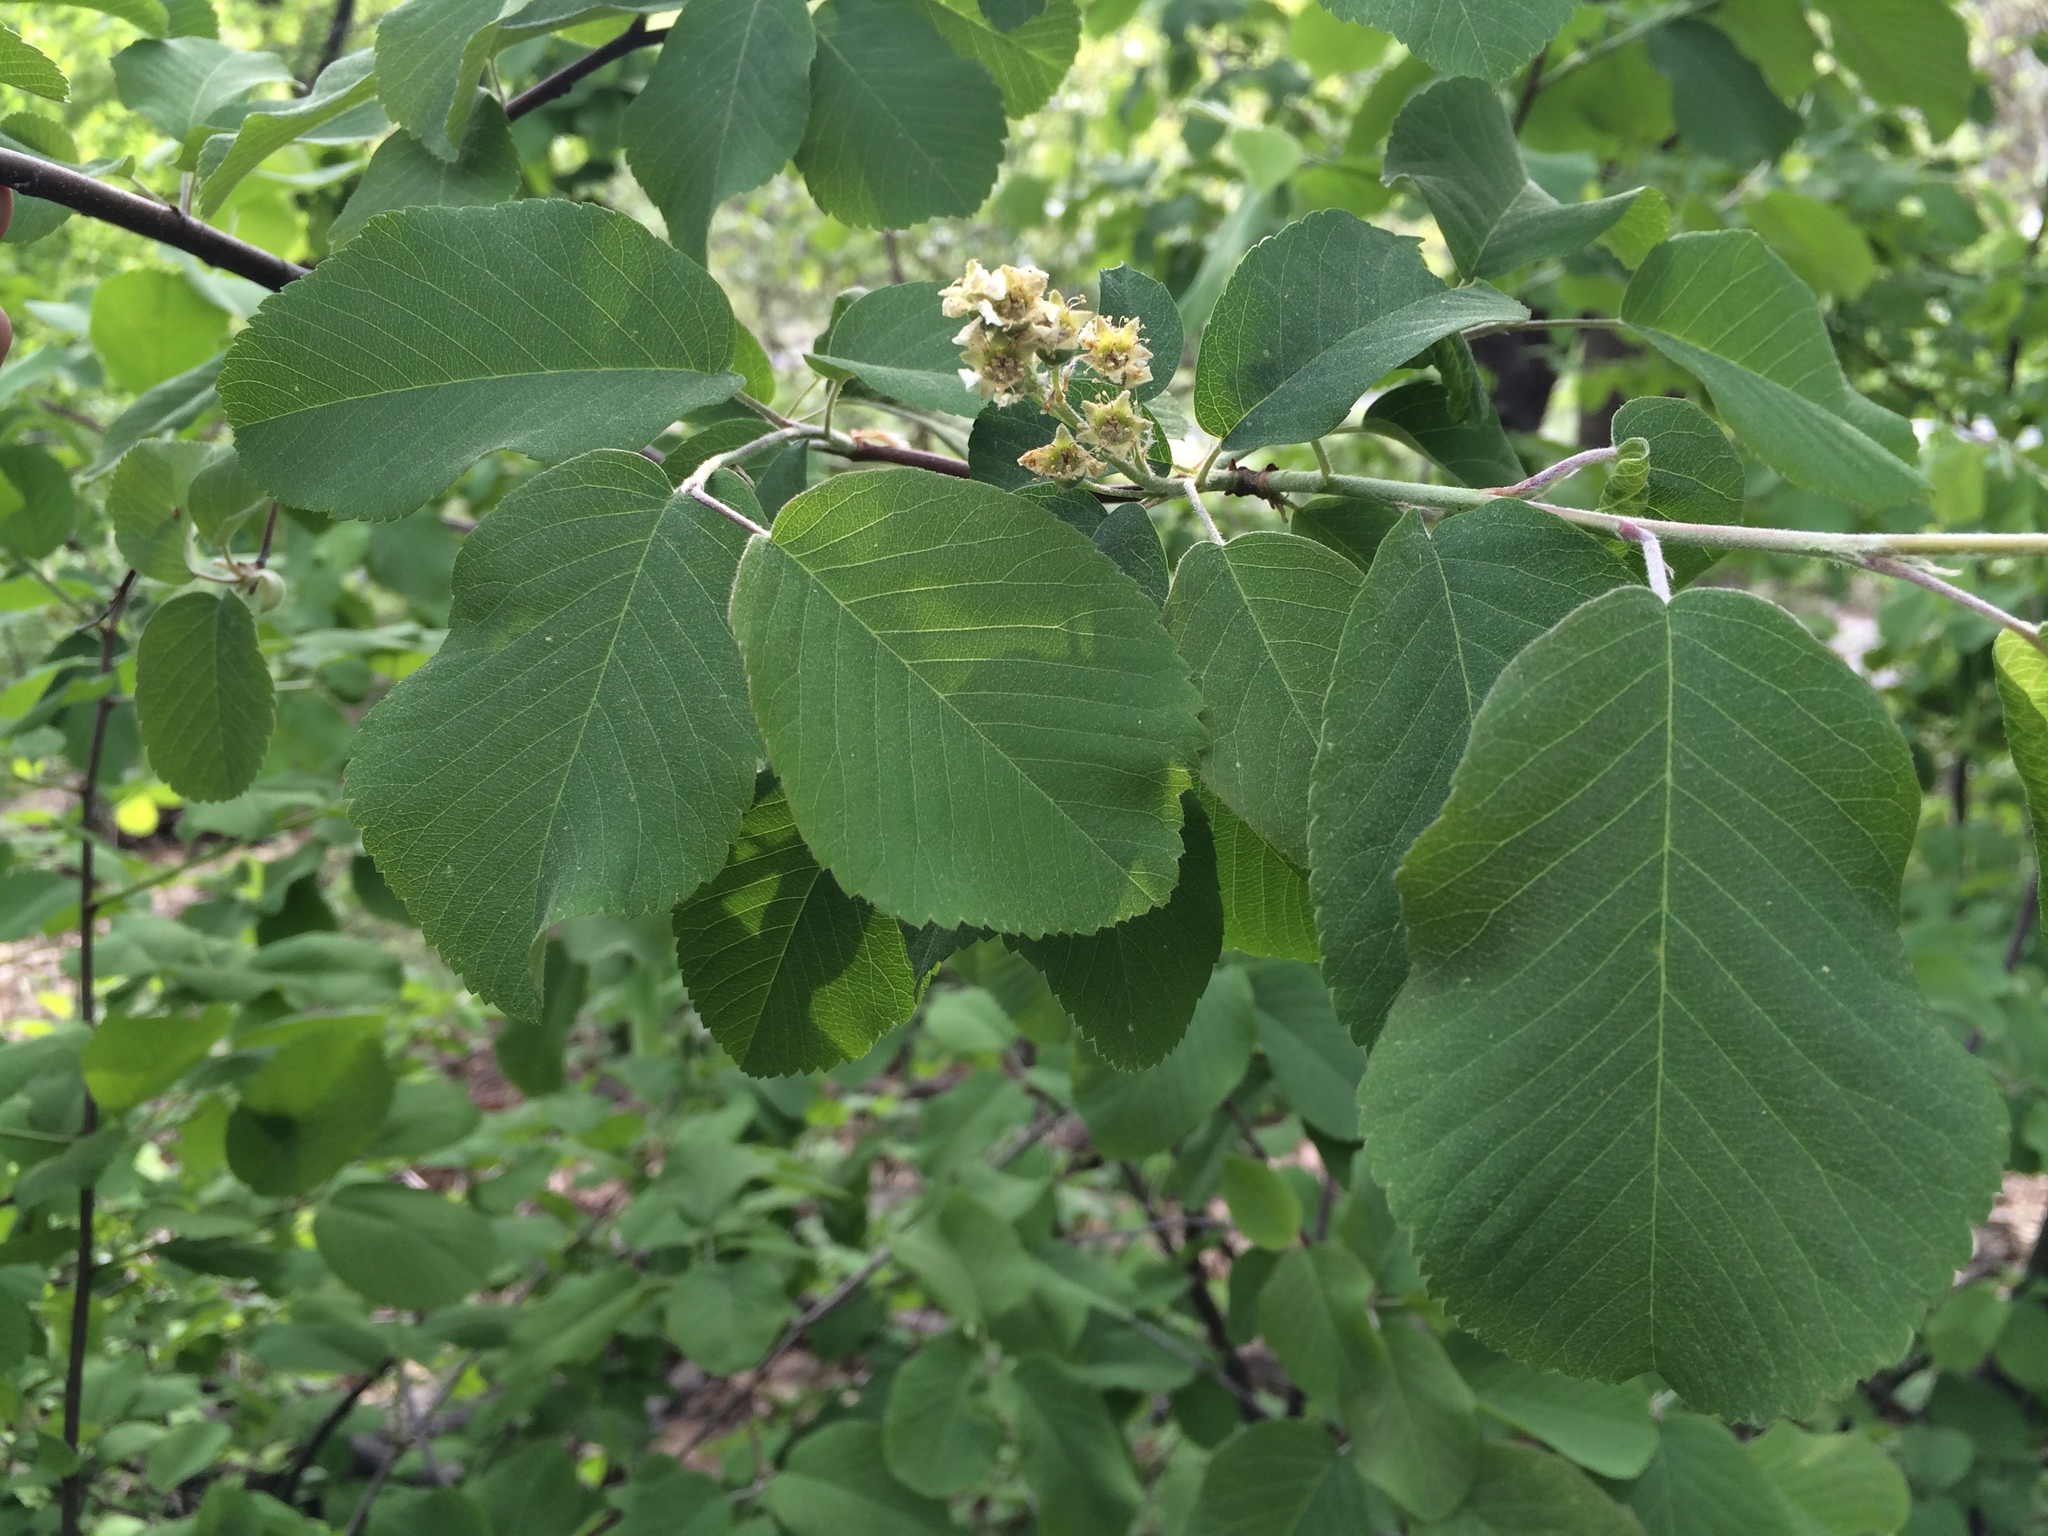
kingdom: Plantae
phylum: Tracheophyta
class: Magnoliopsida
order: Rosales
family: Rosaceae
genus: Amelanchier
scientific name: Amelanchier alnifolia
